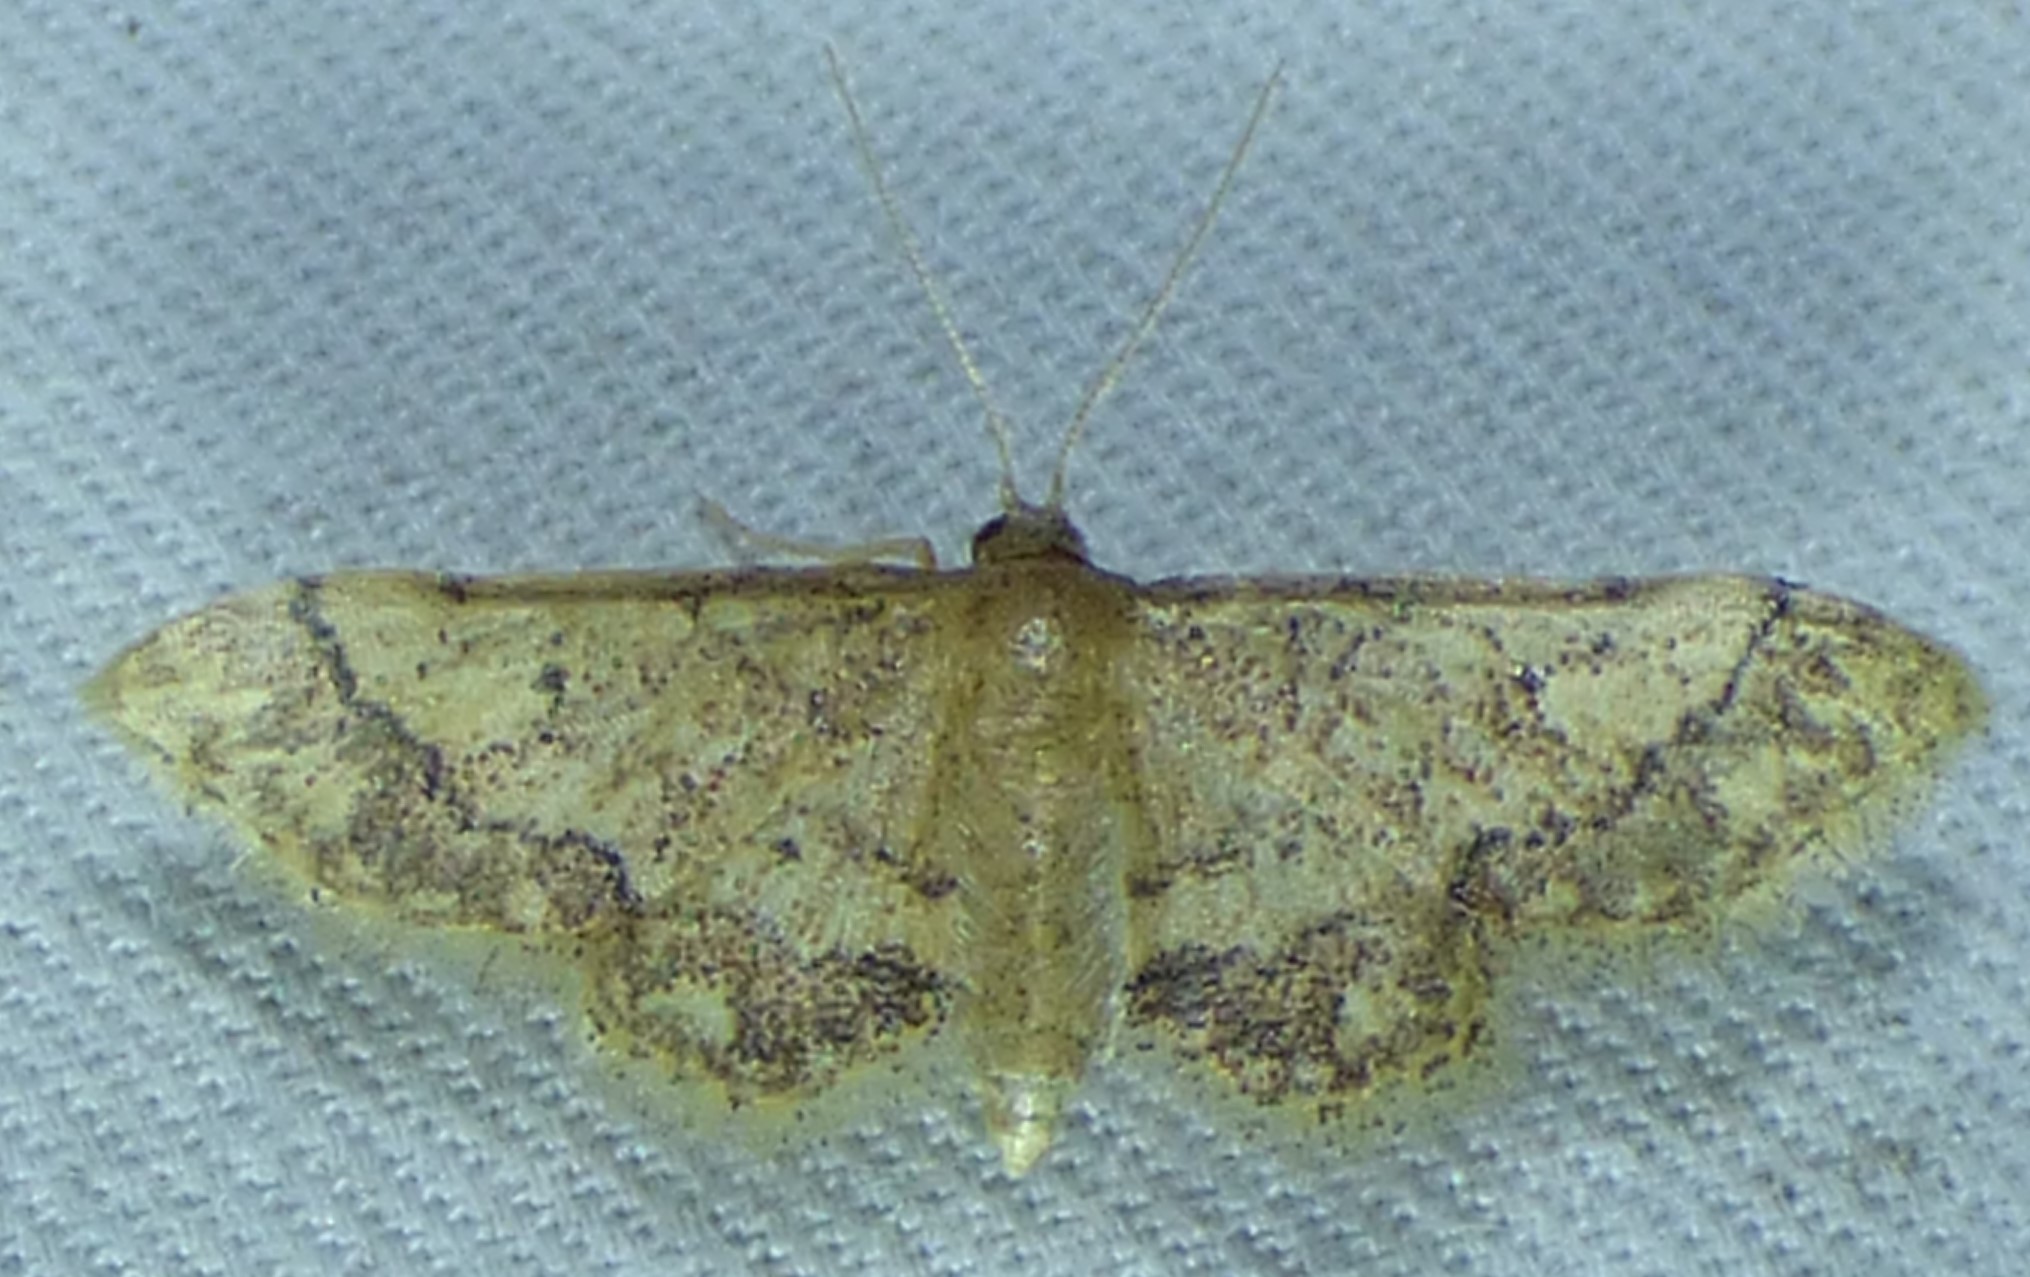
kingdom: Animalia
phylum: Arthropoda
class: Insecta
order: Lepidoptera
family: Geometridae
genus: Idaea
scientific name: Idaea celtima
